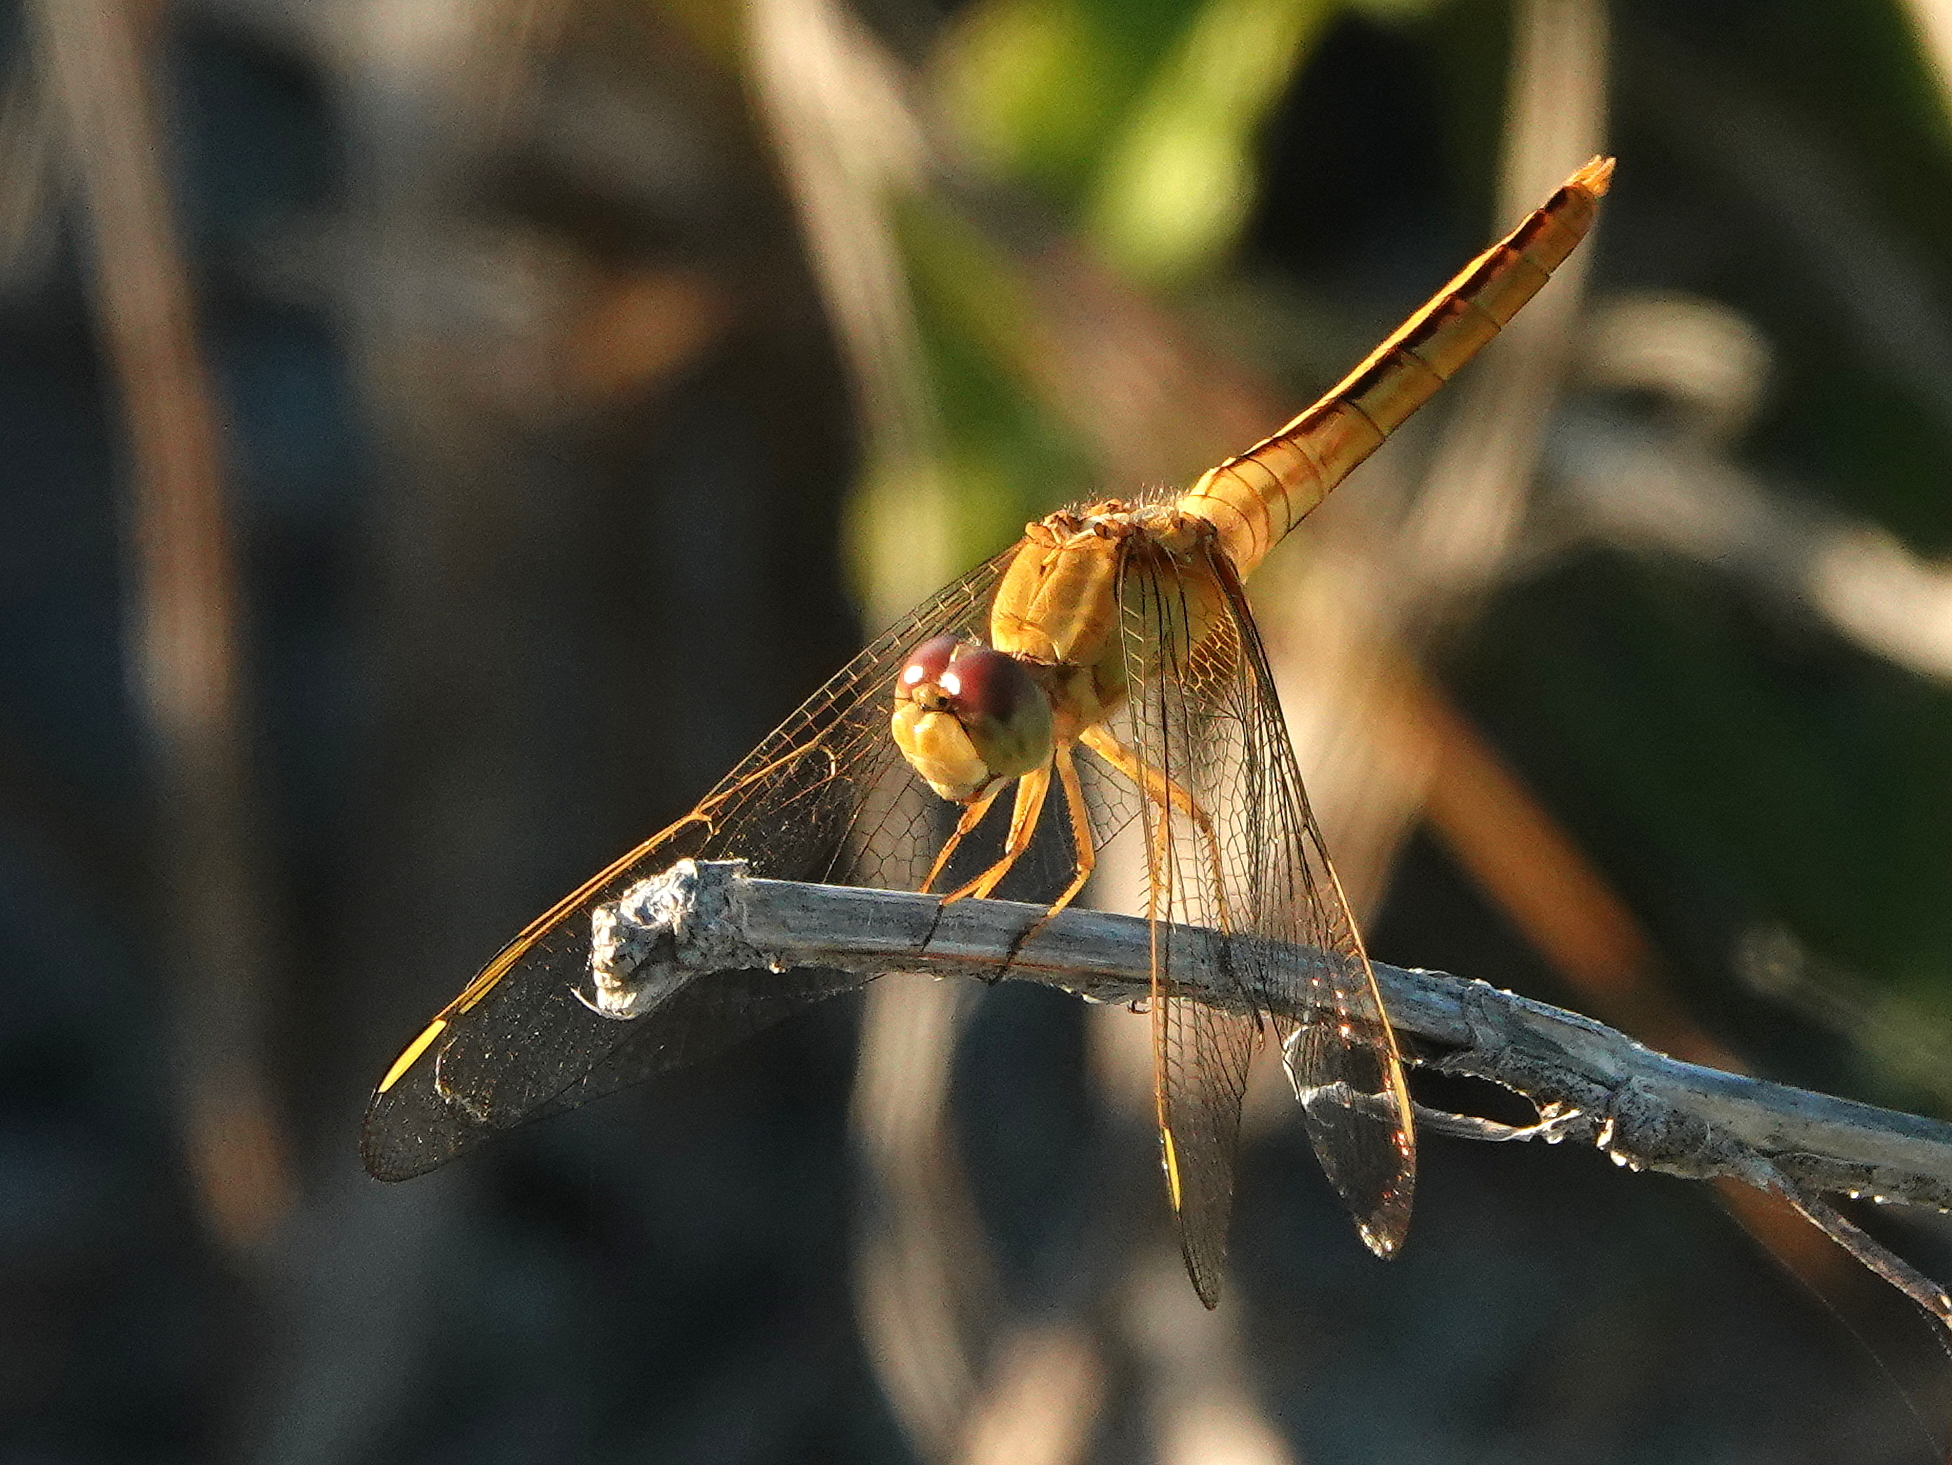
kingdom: Animalia
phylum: Arthropoda
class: Insecta
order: Odonata
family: Libellulidae
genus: Crocothemis
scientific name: Crocothemis servilia
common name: Scarlet skimmer
